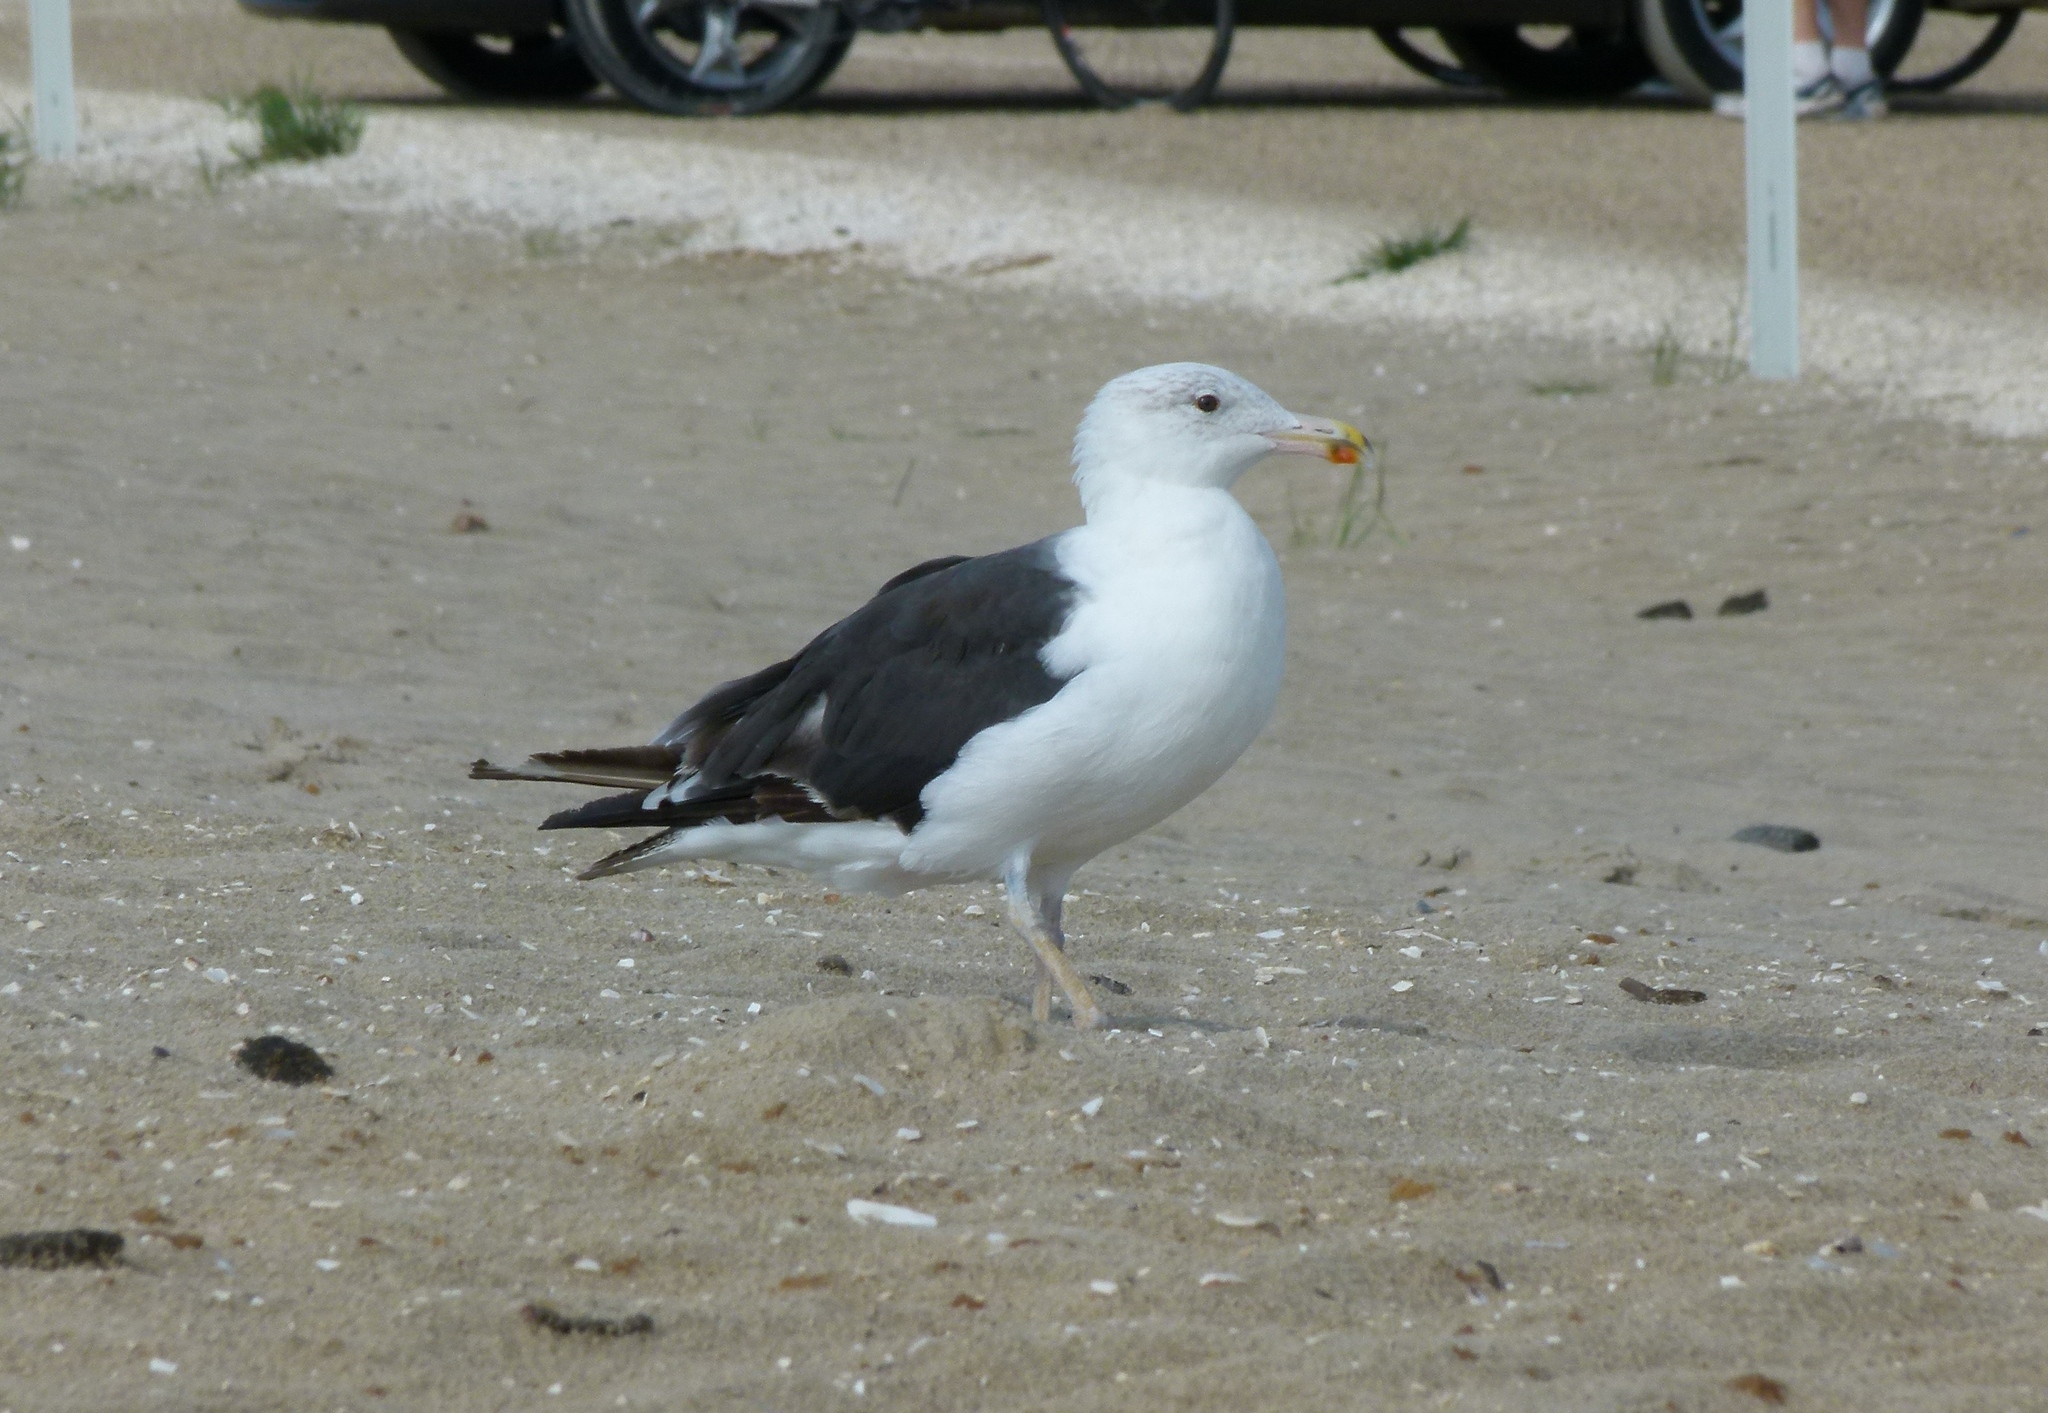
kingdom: Animalia
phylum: Chordata
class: Aves
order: Charadriiformes
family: Laridae
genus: Larus
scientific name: Larus marinus
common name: Great black-backed gull
